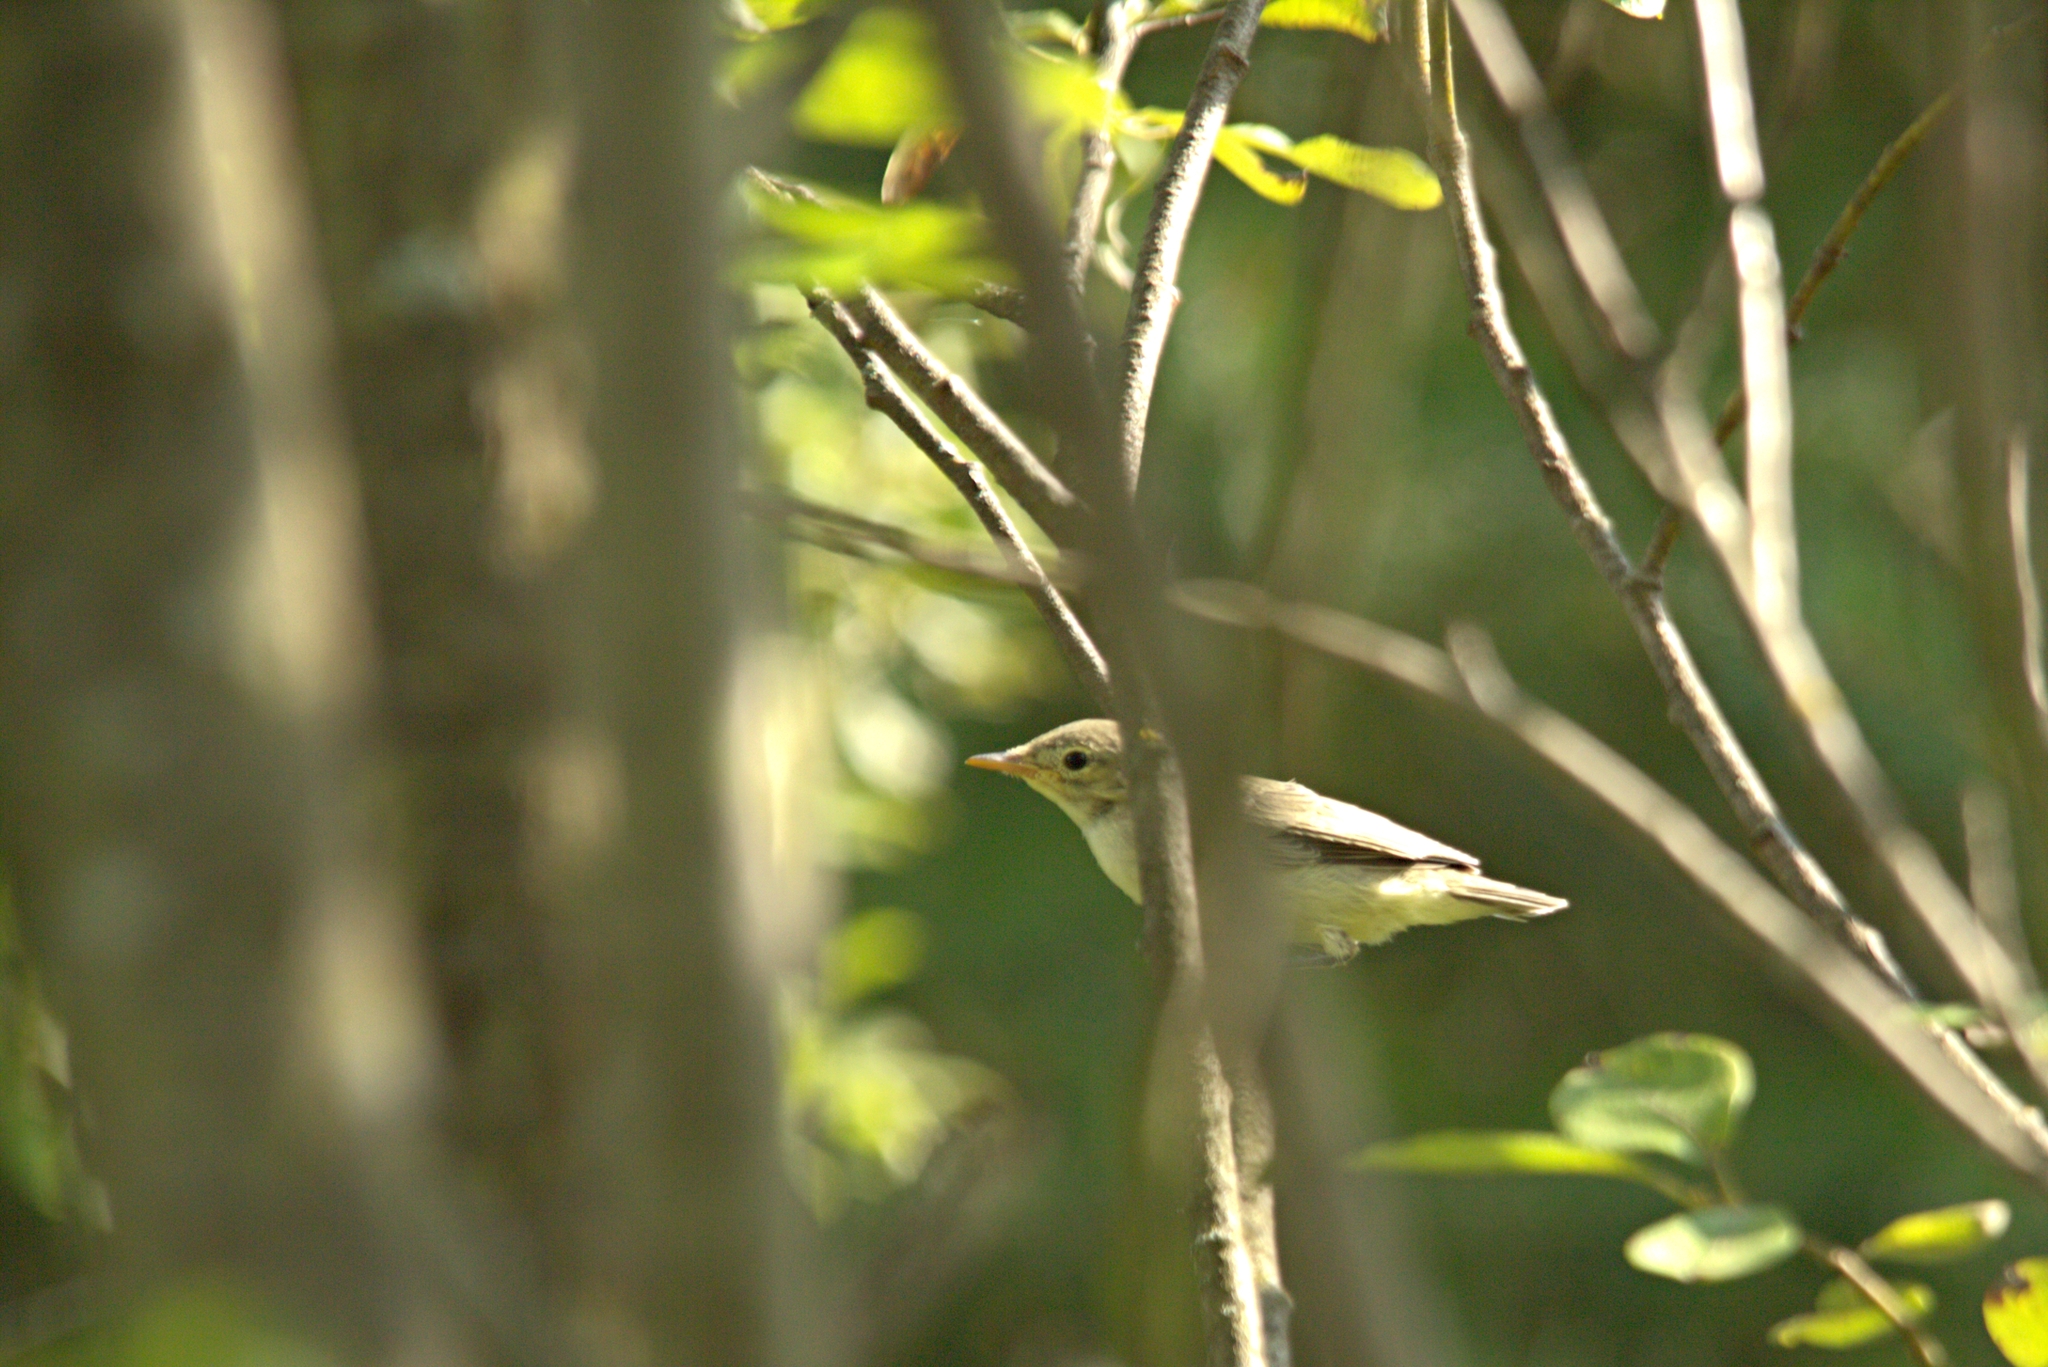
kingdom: Animalia
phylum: Chordata
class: Aves
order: Passeriformes
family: Acrocephalidae
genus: Hippolais
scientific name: Hippolais icterina
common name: Icterine warbler
